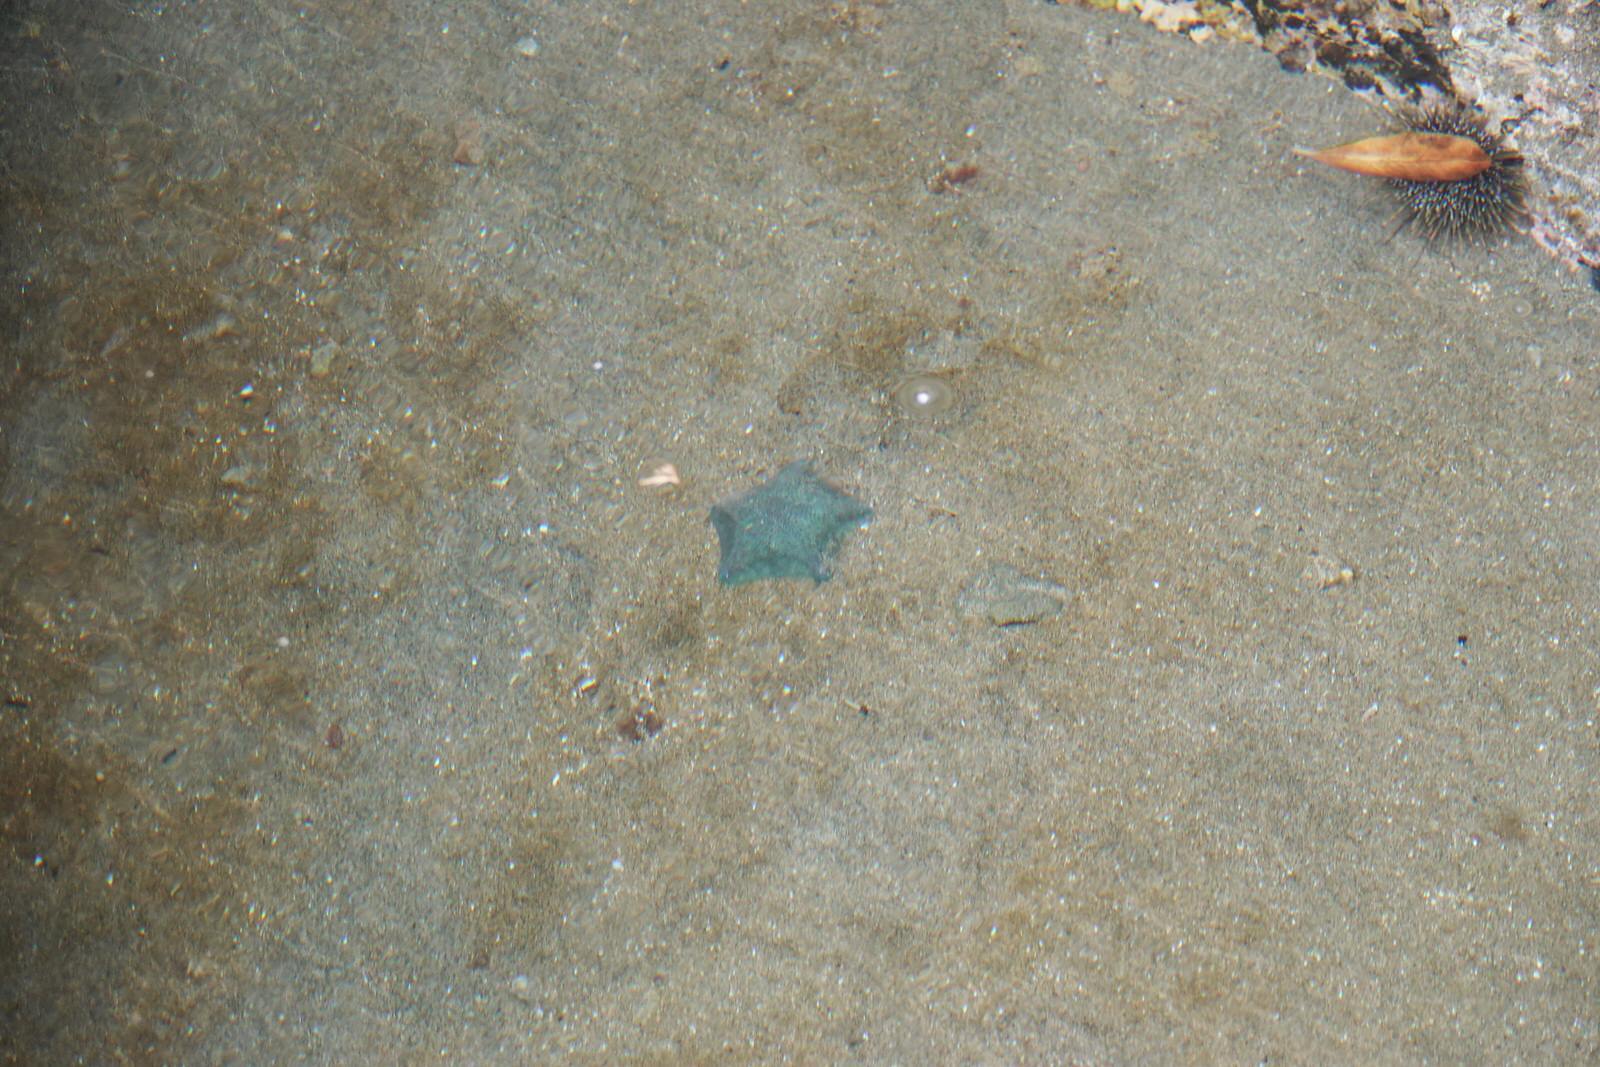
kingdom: Animalia
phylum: Echinodermata
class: Echinoidea
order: Camarodonta
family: Echinometridae
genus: Evechinus
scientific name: Evechinus chloroticus
